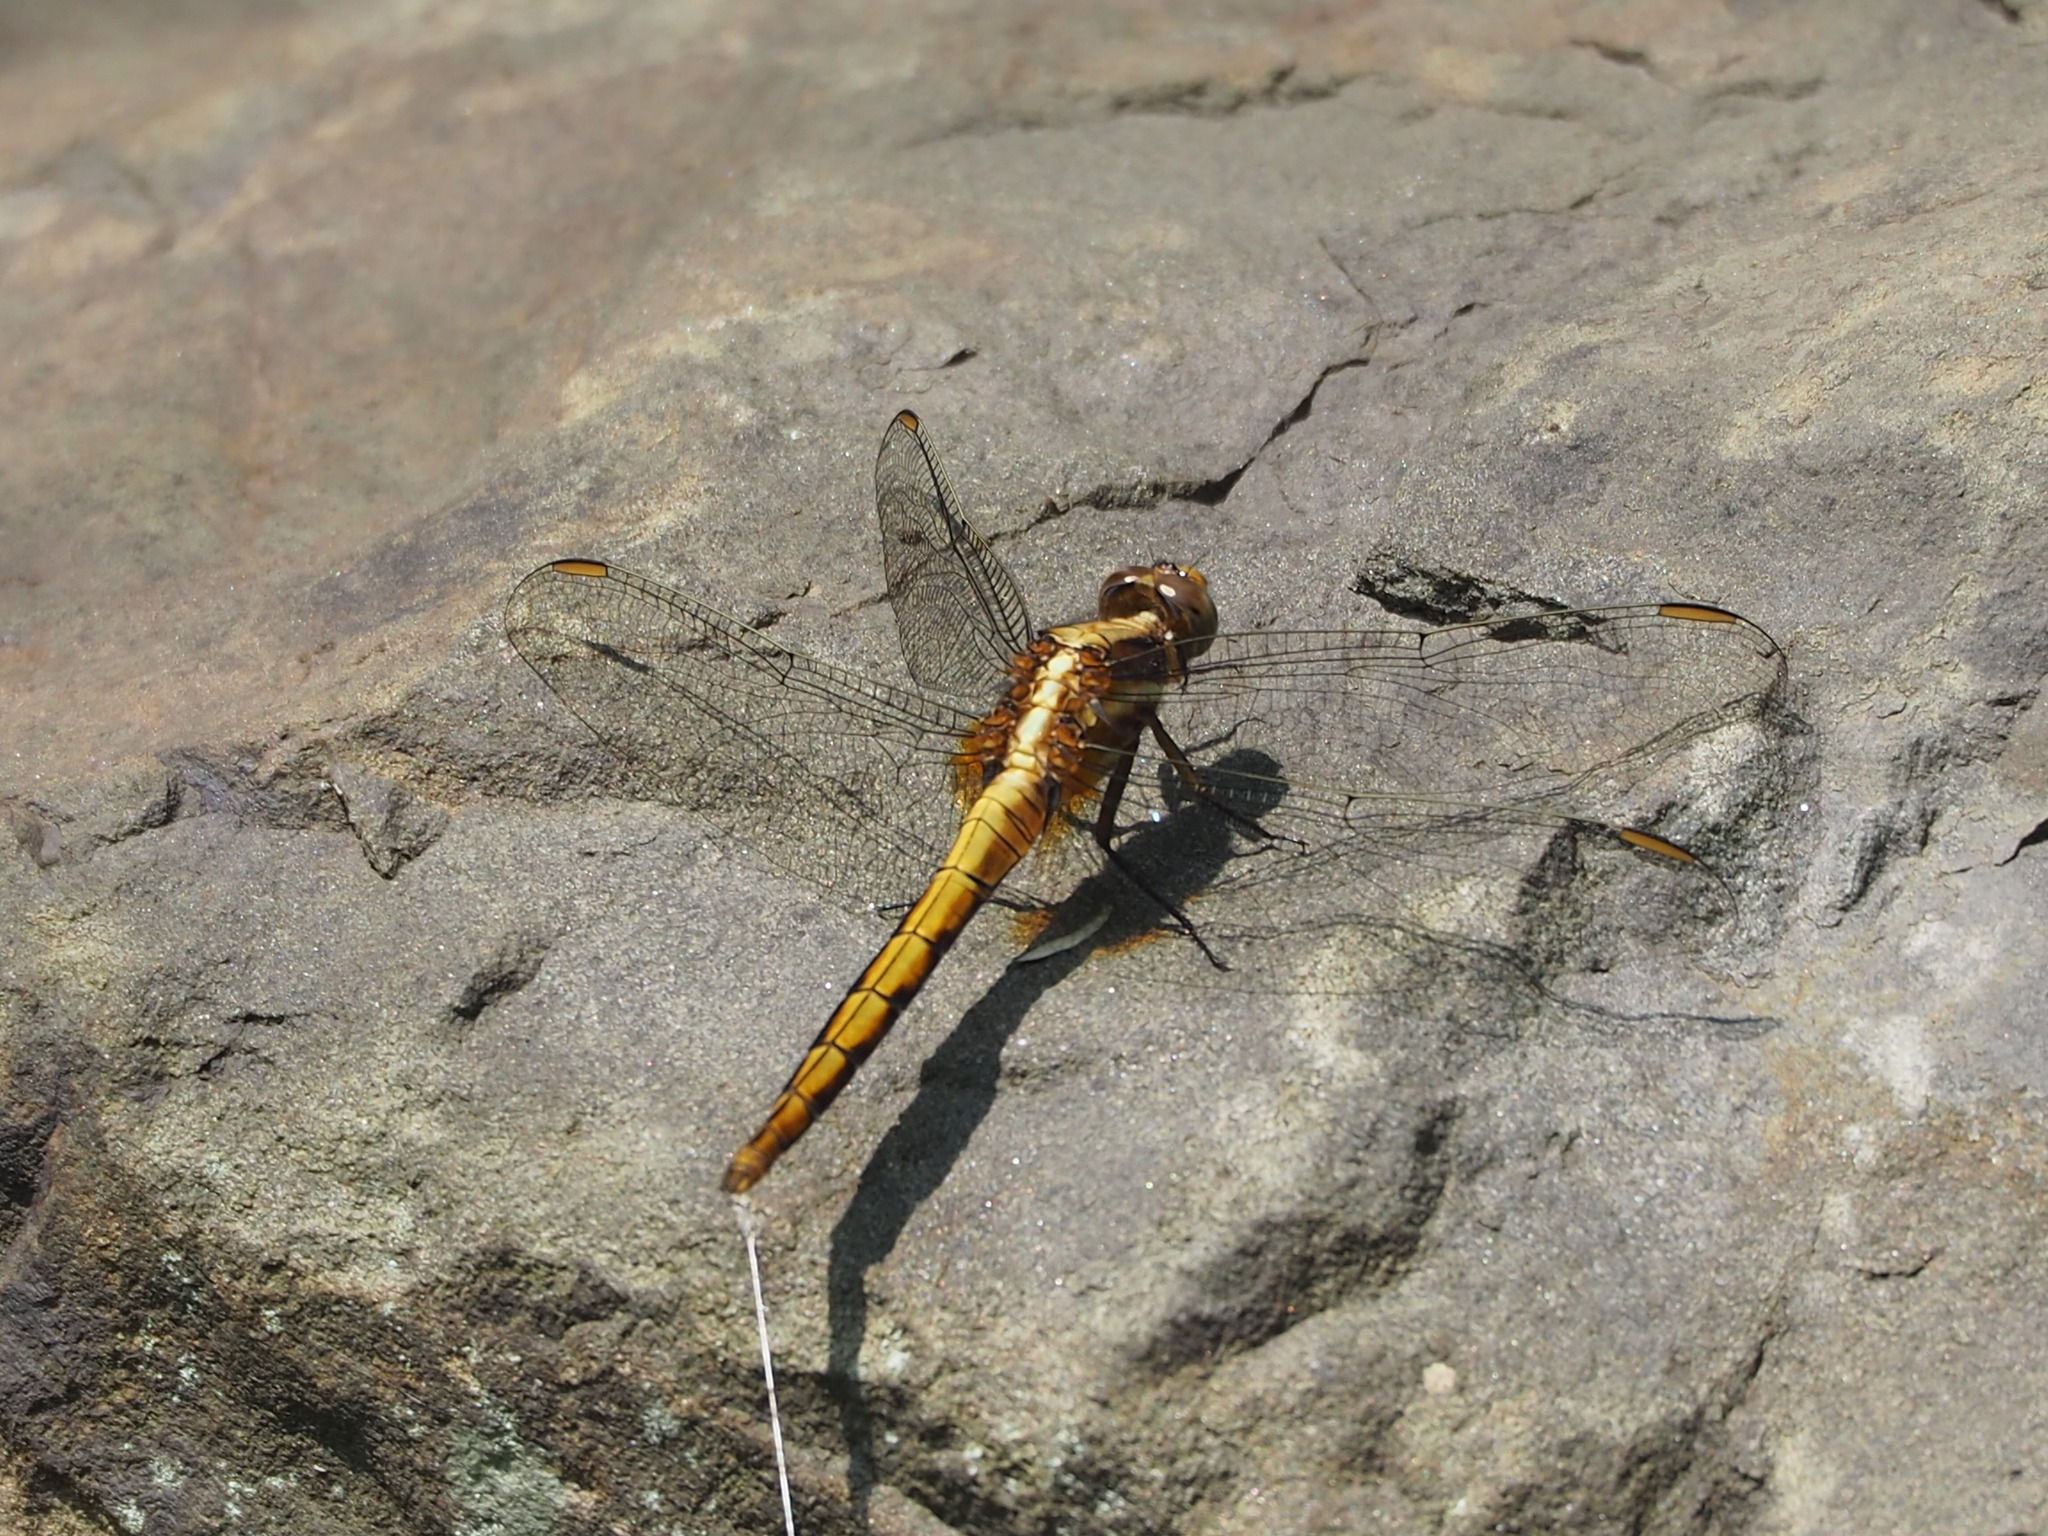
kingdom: Animalia
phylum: Arthropoda
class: Insecta
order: Odonata
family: Libellulidae
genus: Orthetrum
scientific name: Orthetrum glaucum
